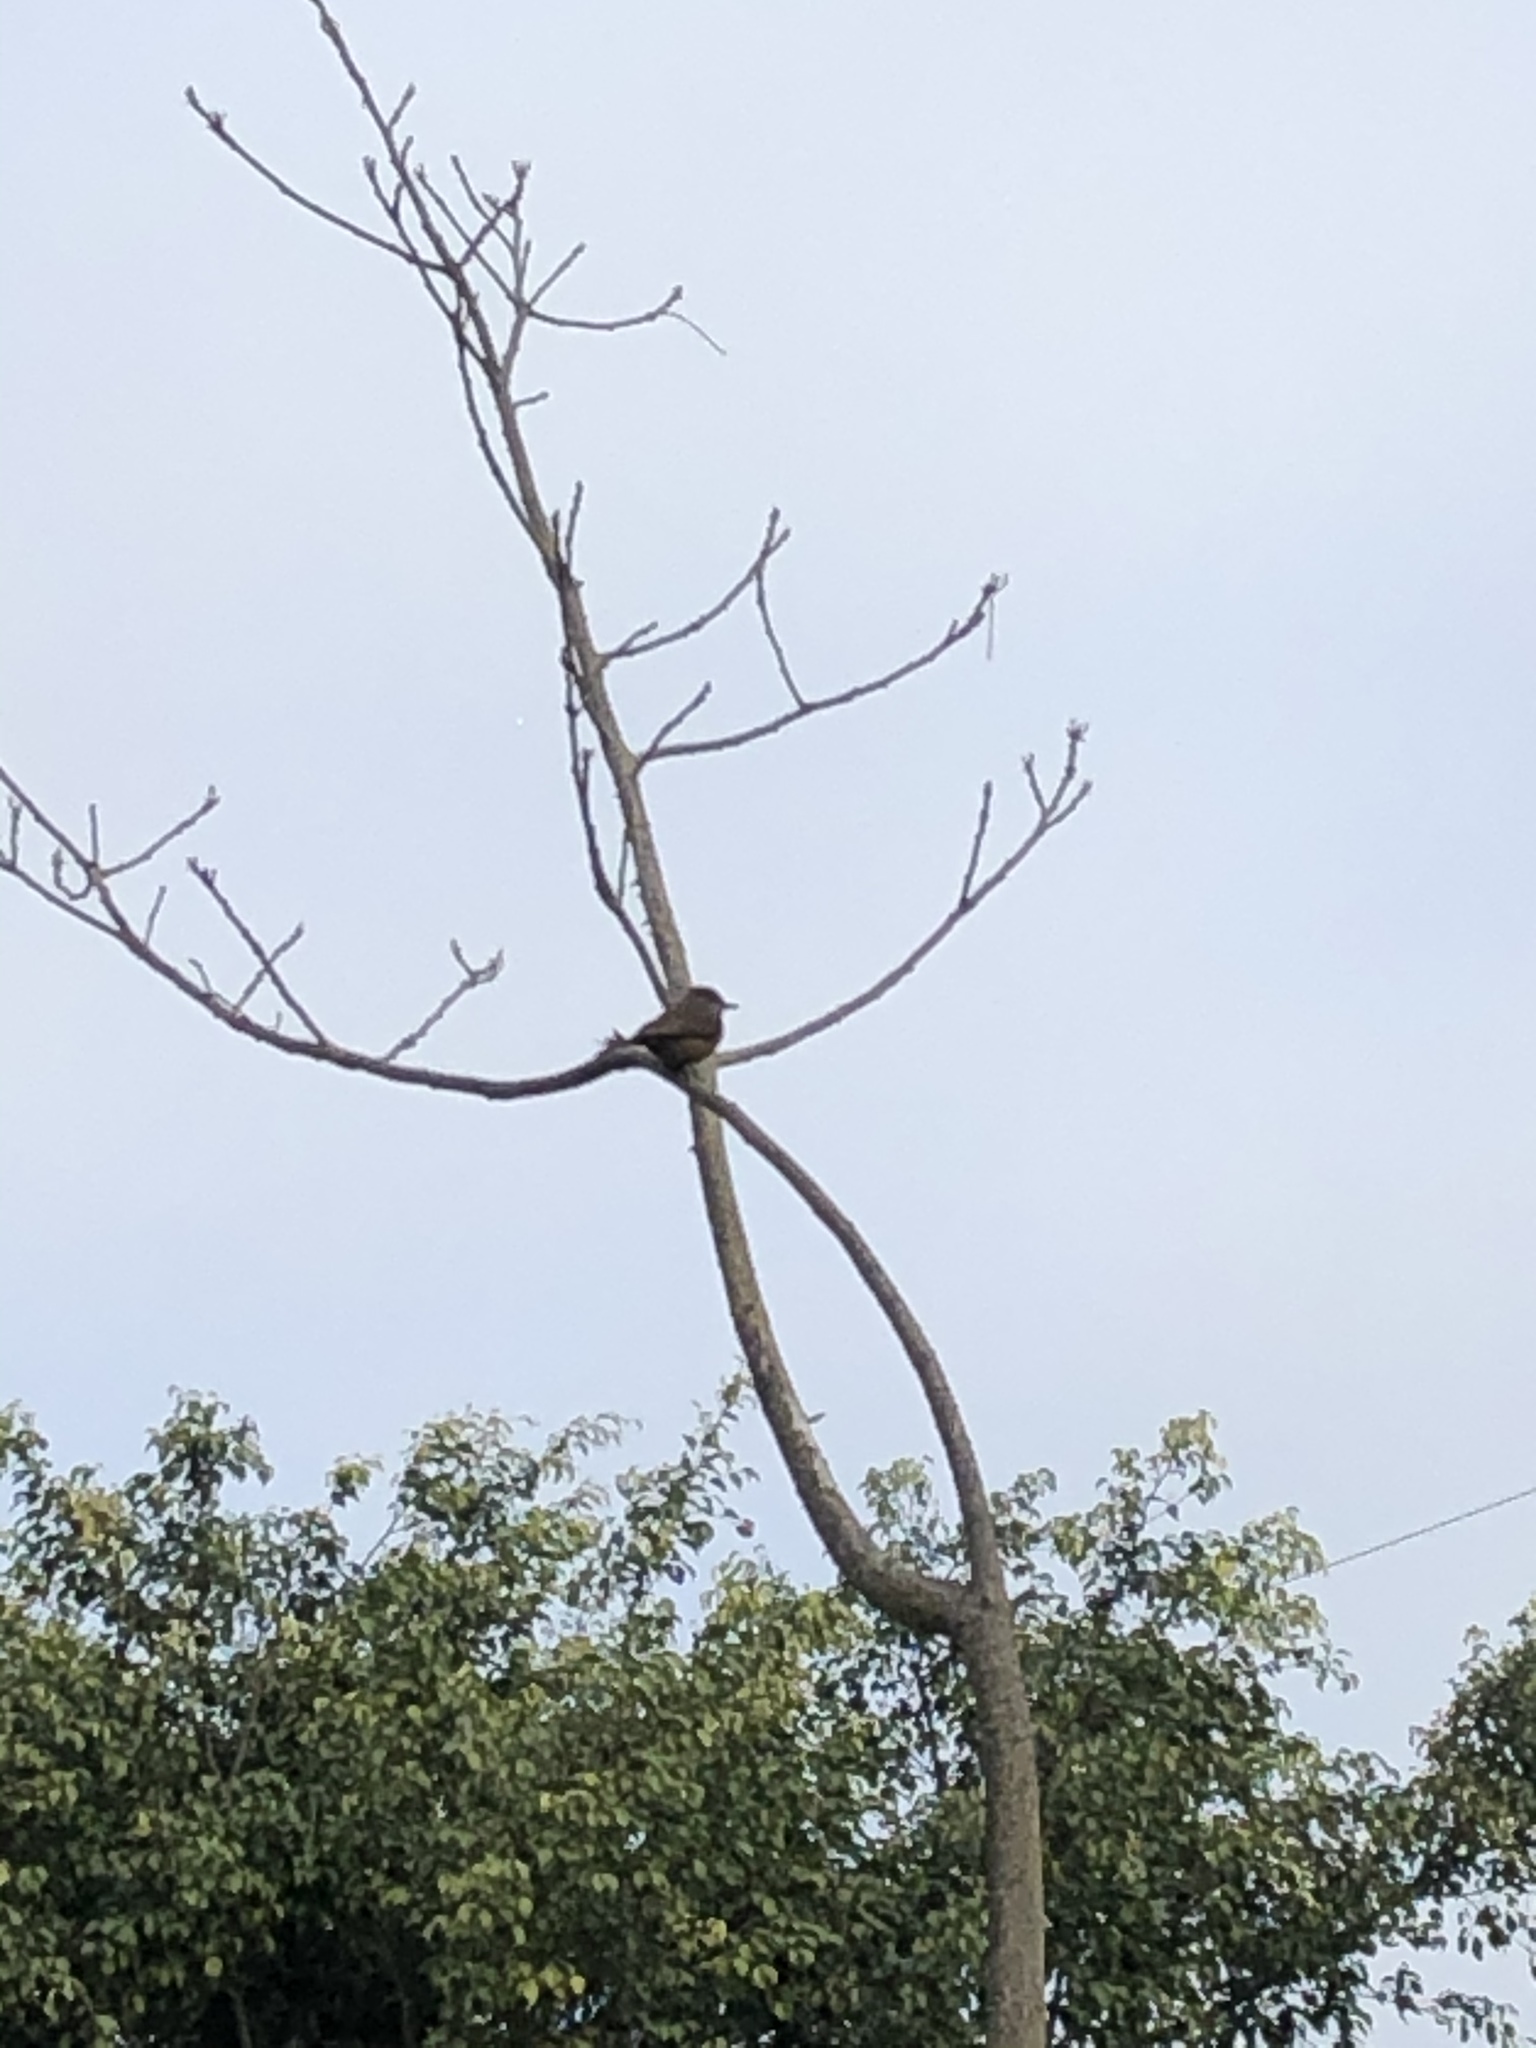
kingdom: Animalia
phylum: Chordata
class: Aves
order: Passeriformes
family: Tyrannidae
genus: Pyrocephalus
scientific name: Pyrocephalus rubinus
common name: Vermilion flycatcher
